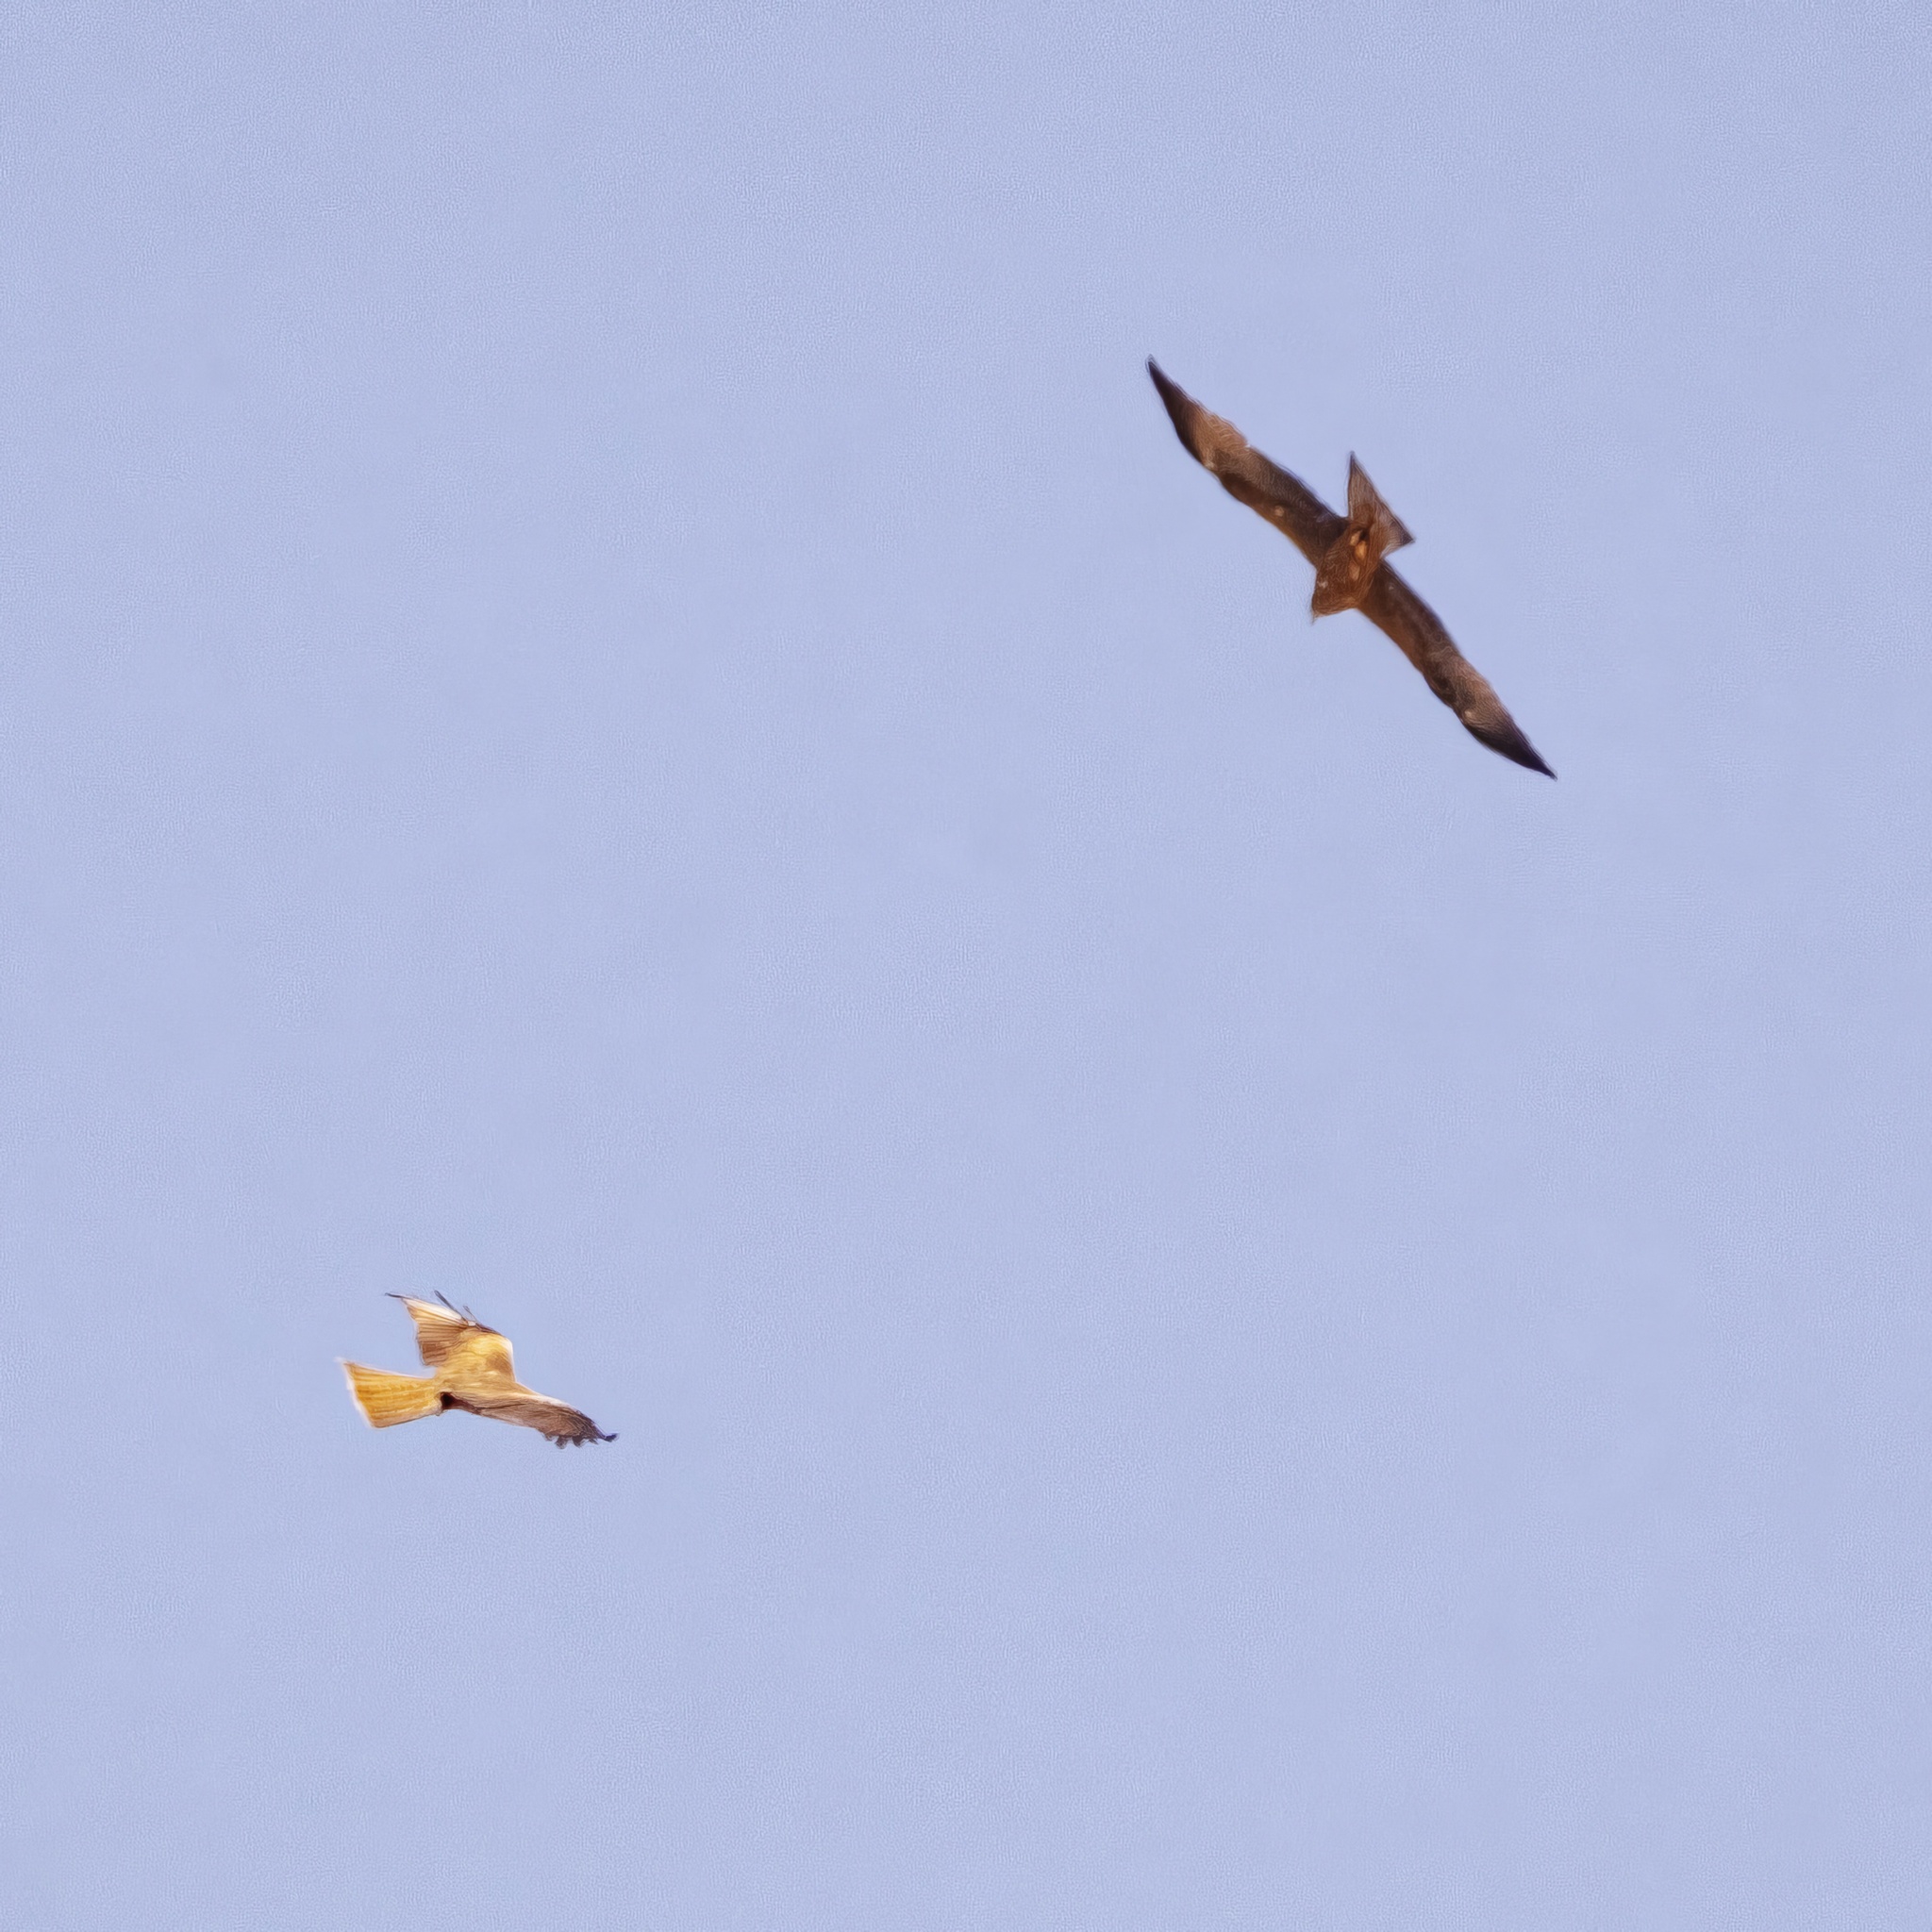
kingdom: Animalia
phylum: Chordata
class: Aves
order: Accipitriformes
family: Accipitridae
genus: Milvus
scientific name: Milvus migrans
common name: Black kite
